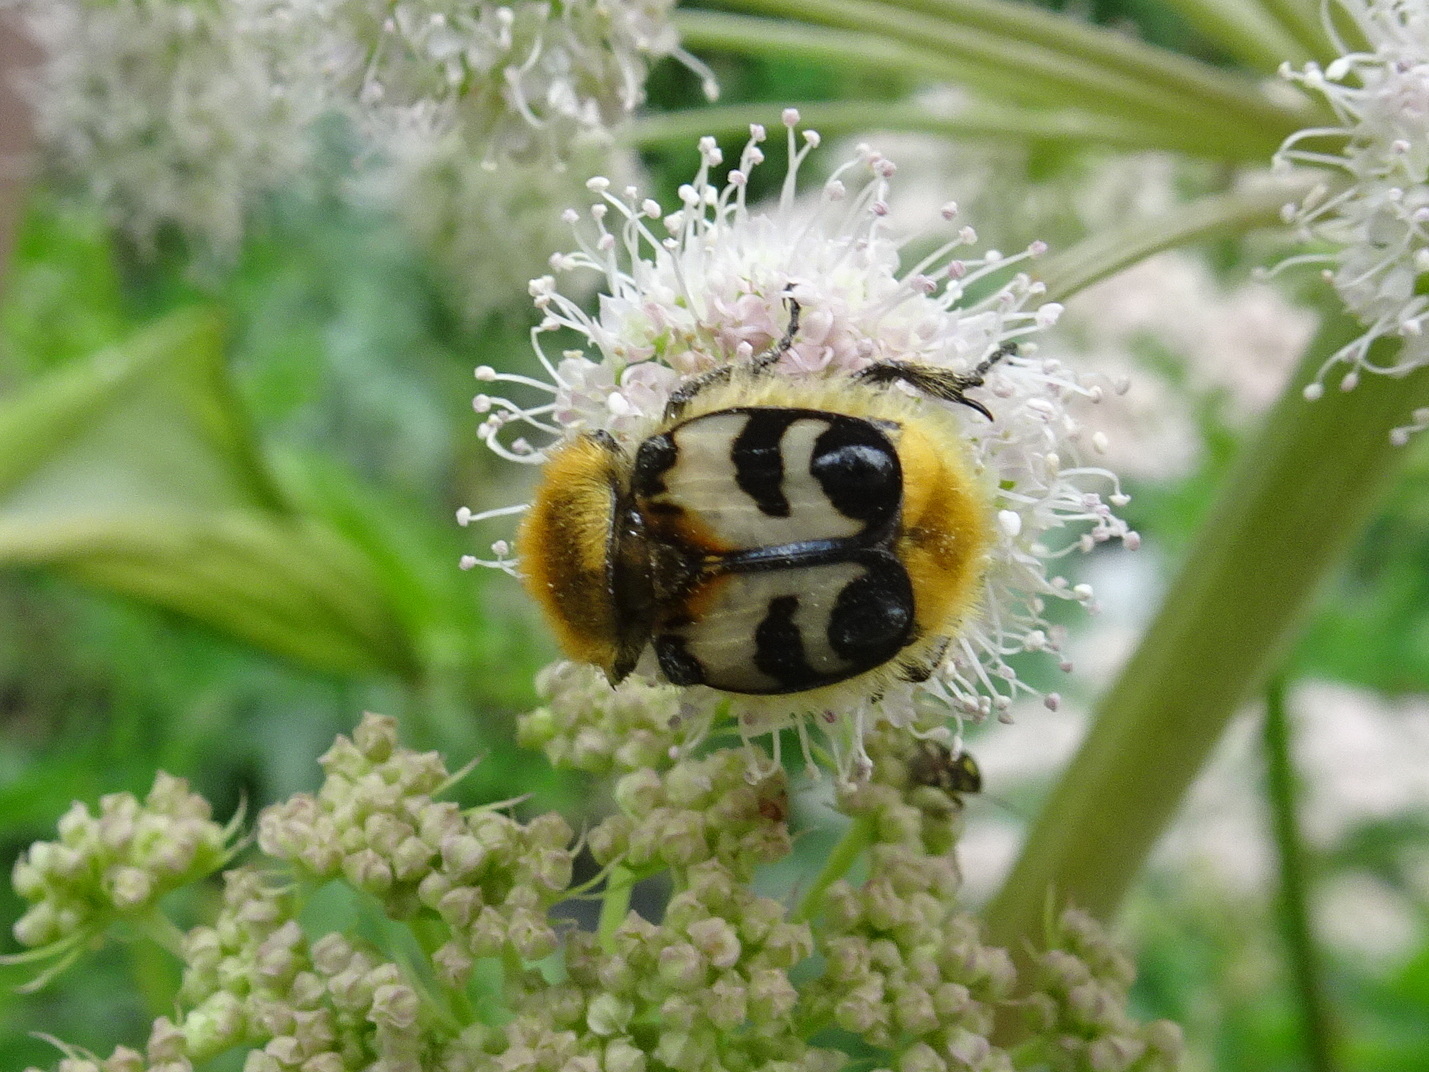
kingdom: Animalia
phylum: Arthropoda
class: Insecta
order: Coleoptera
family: Scarabaeidae
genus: Trichius
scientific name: Trichius fasciatus
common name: Bee beetle
